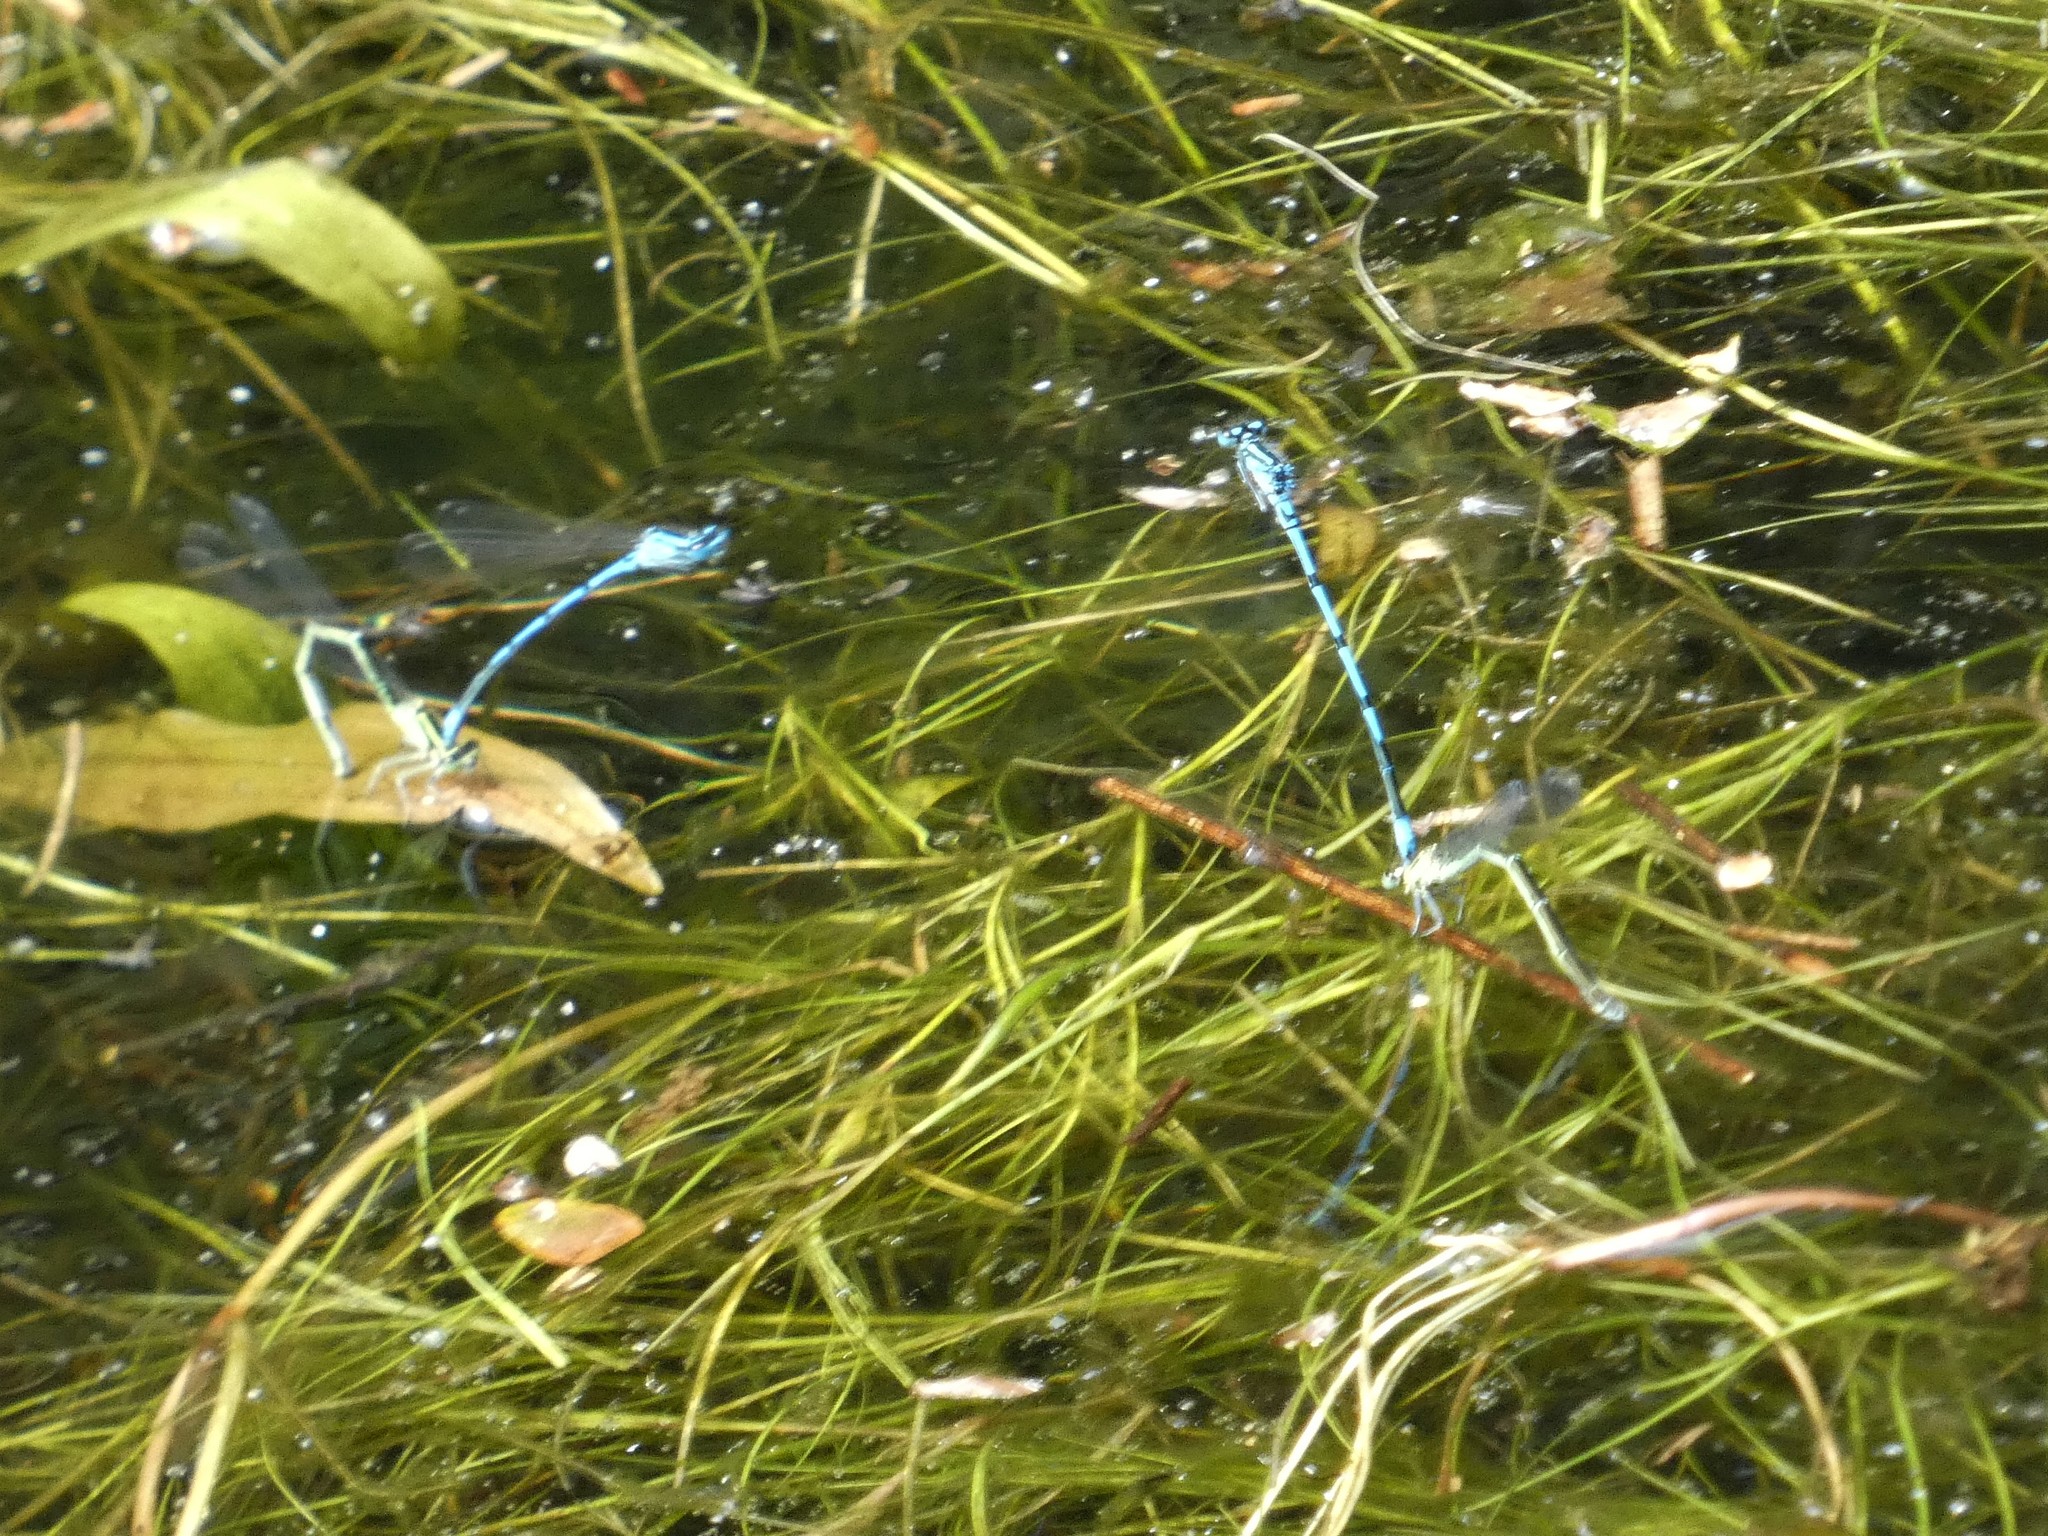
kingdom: Animalia
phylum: Arthropoda
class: Insecta
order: Odonata
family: Coenagrionidae
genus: Coenagrion
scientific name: Coenagrion puella
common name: Azure damselfly
